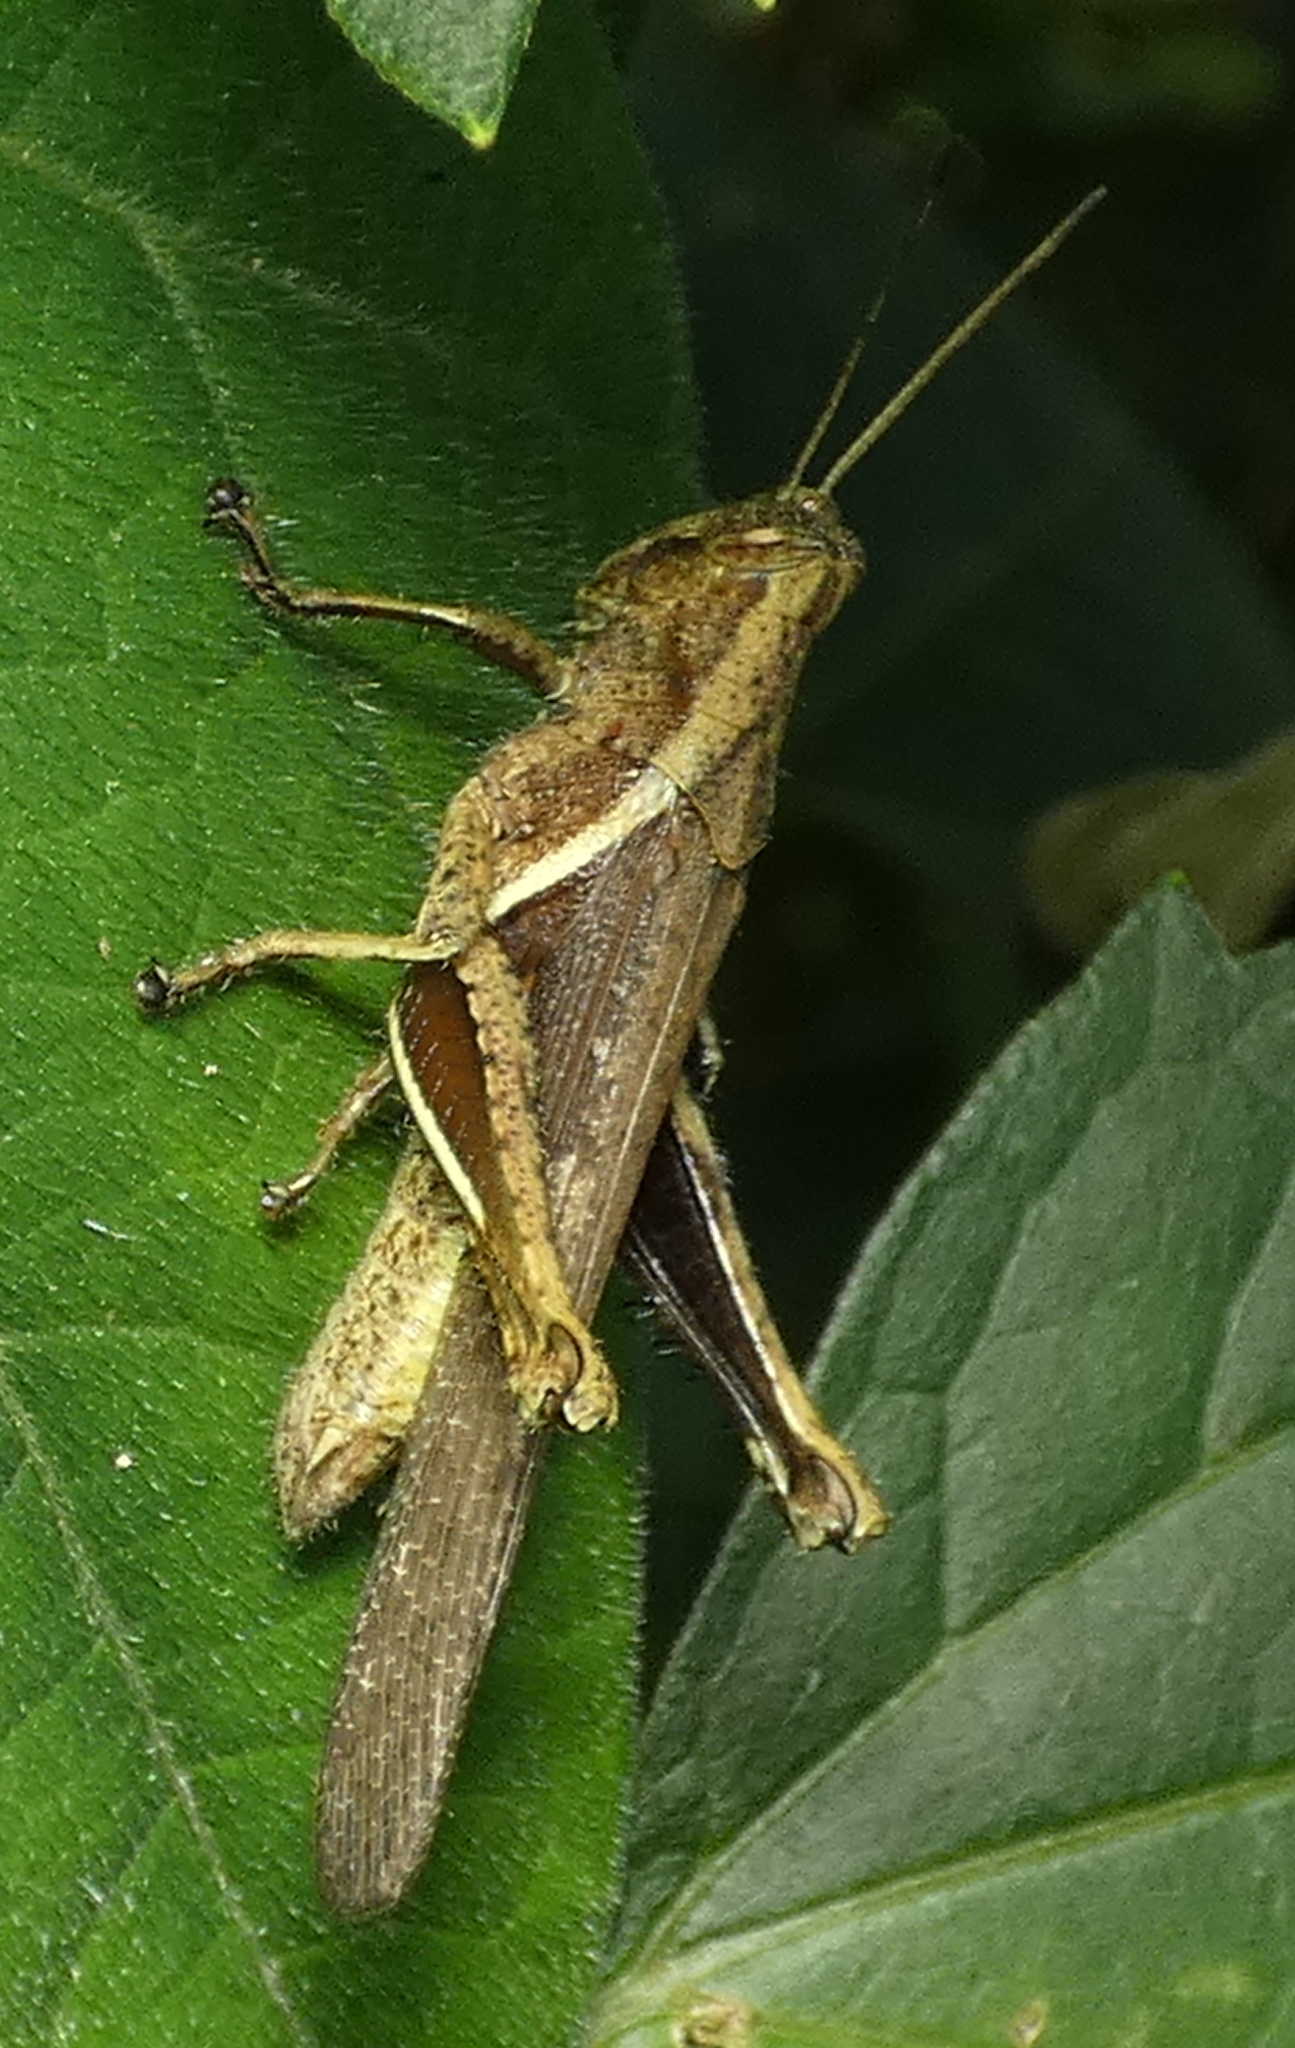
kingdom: Animalia
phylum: Arthropoda
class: Insecta
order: Orthoptera
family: Acrididae
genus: Abracris
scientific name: Abracris flavolineata
